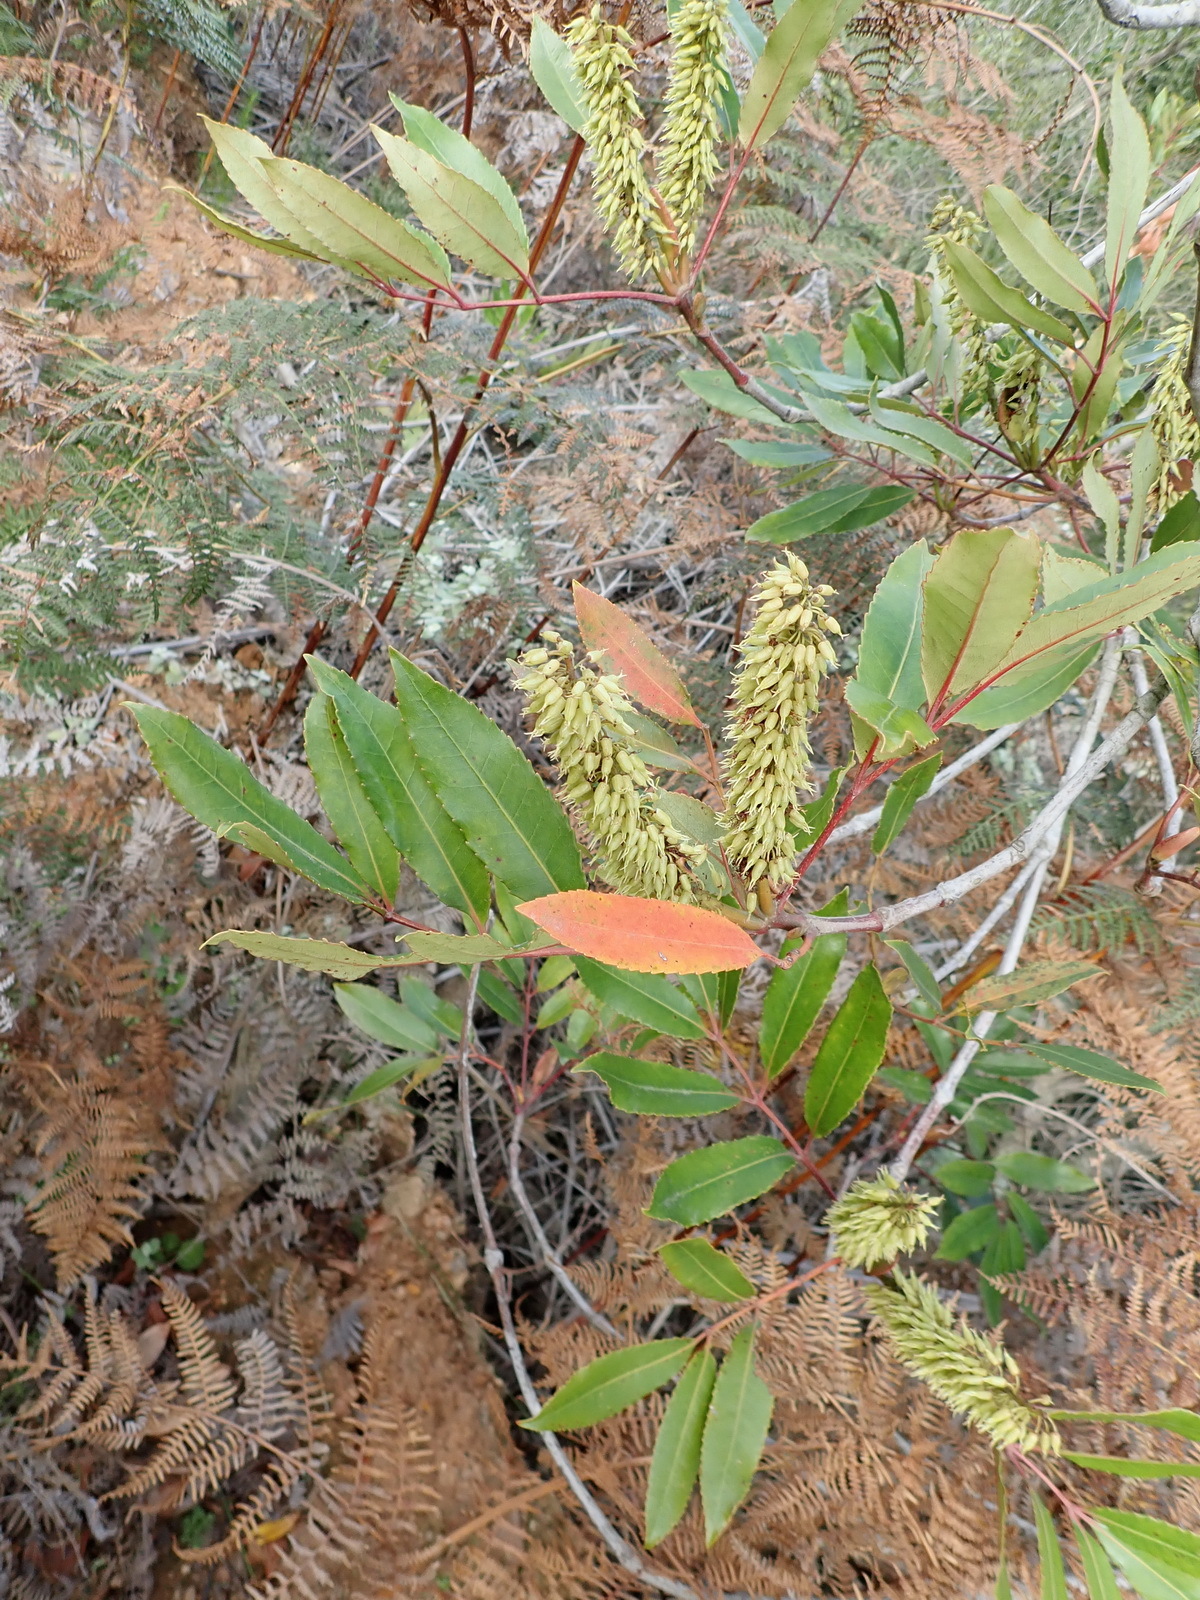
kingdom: Plantae
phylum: Tracheophyta
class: Magnoliopsida
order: Oxalidales
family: Cunoniaceae
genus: Cunonia
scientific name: Cunonia capensis
